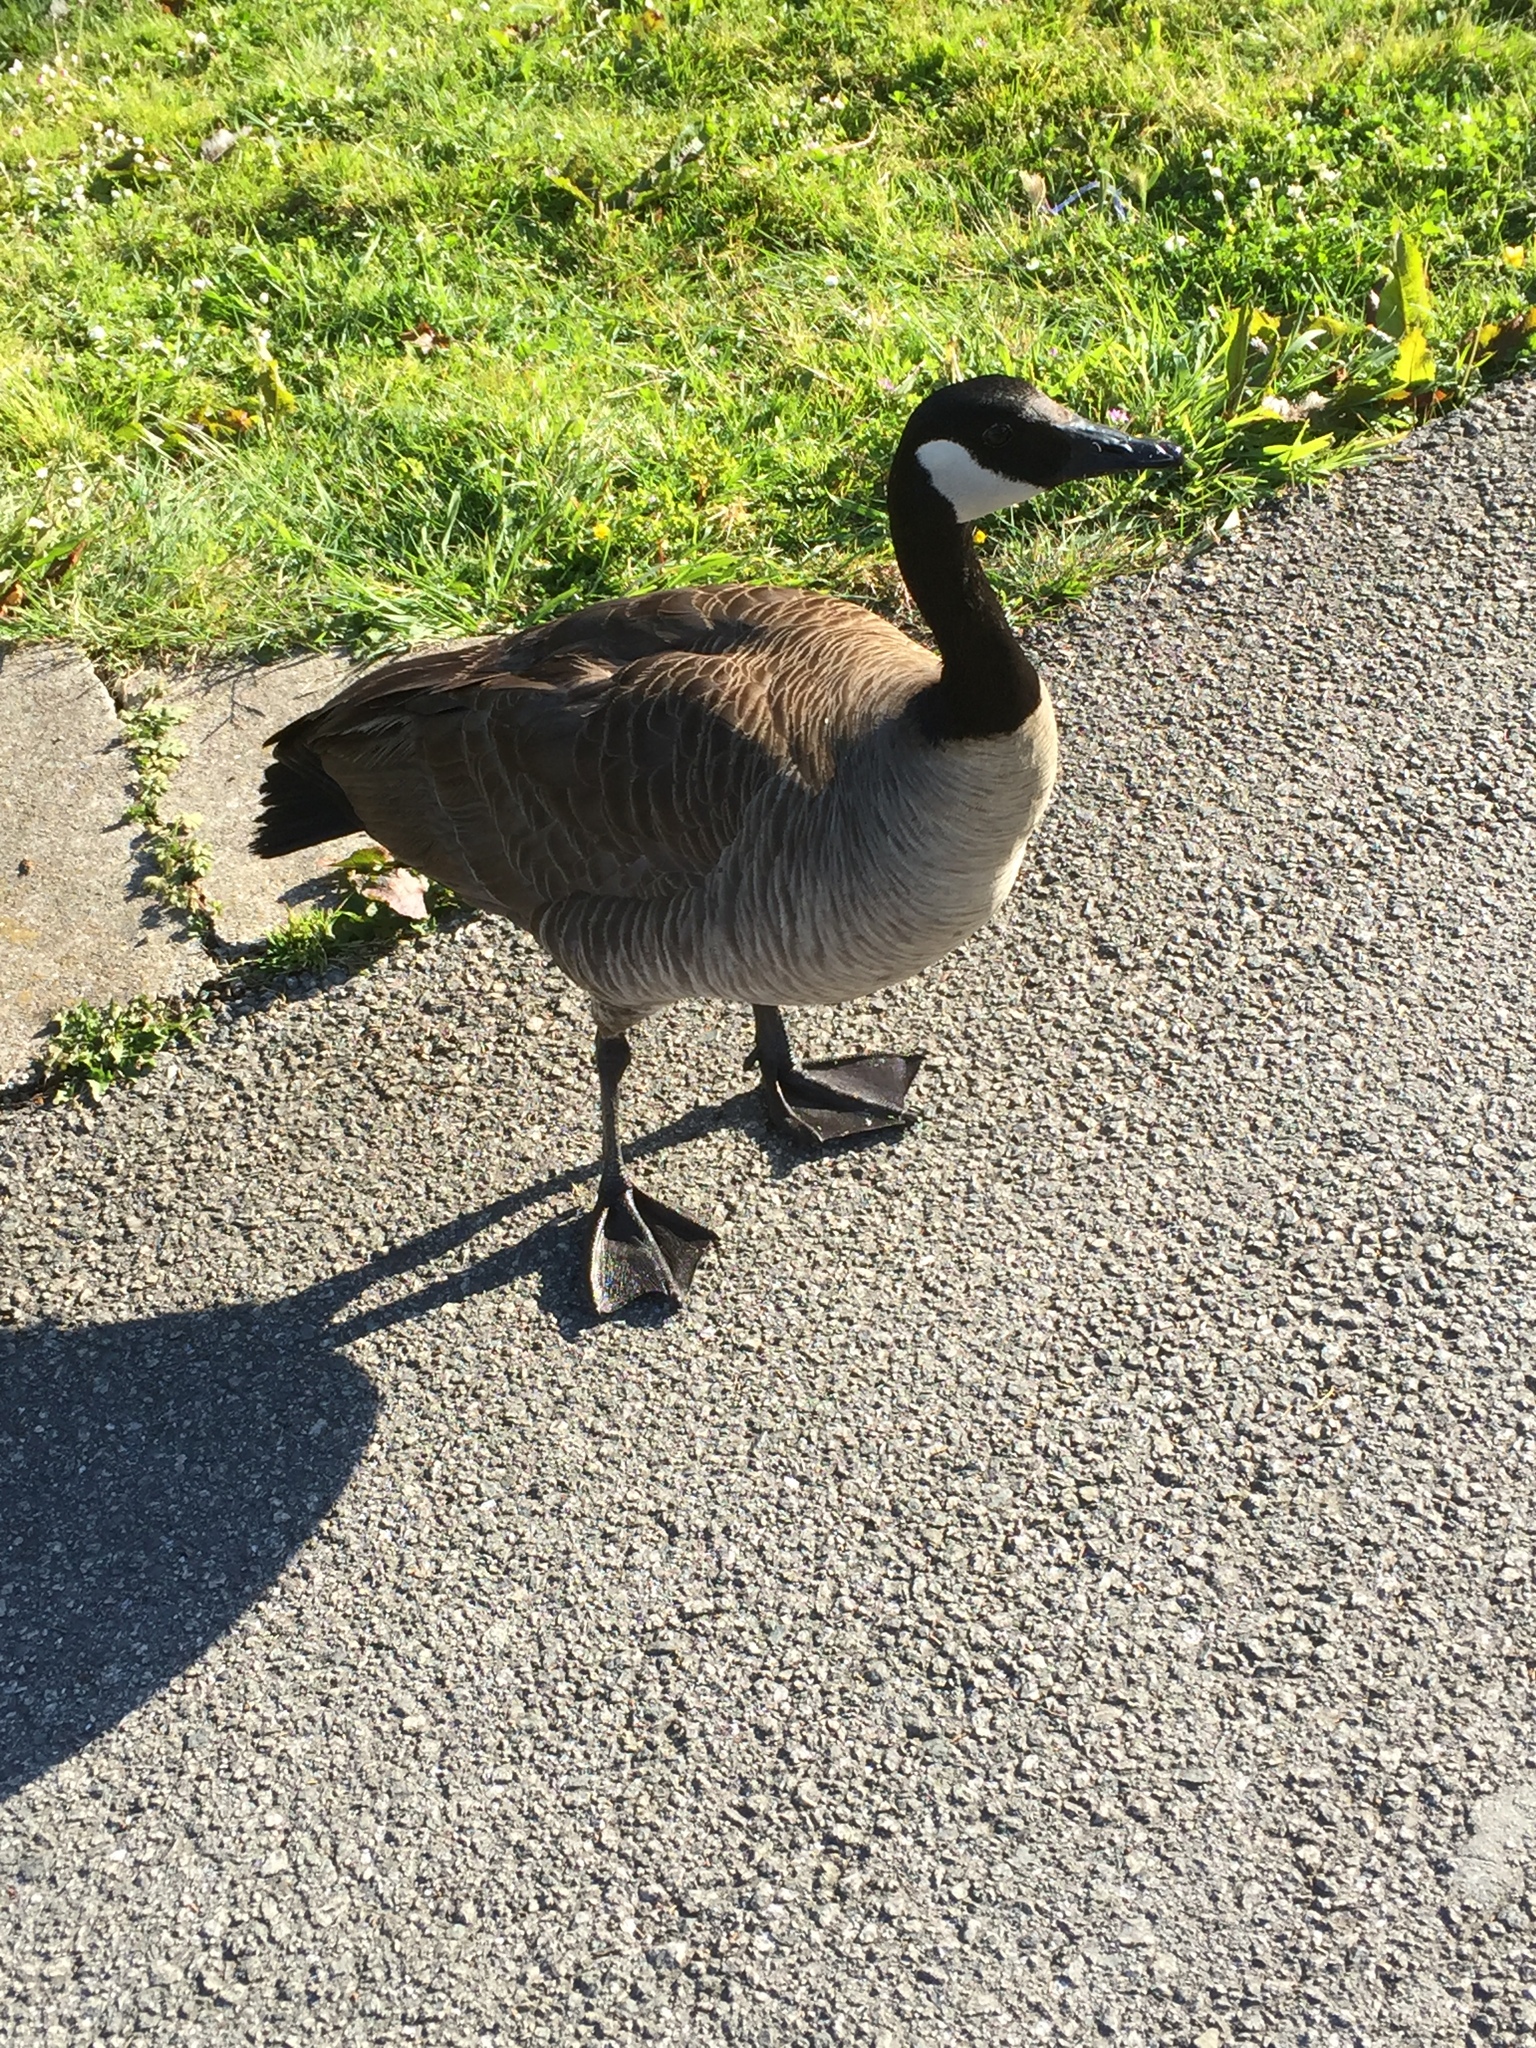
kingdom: Animalia
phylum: Chordata
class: Aves
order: Anseriformes
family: Anatidae
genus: Branta
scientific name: Branta canadensis
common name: Canada goose
